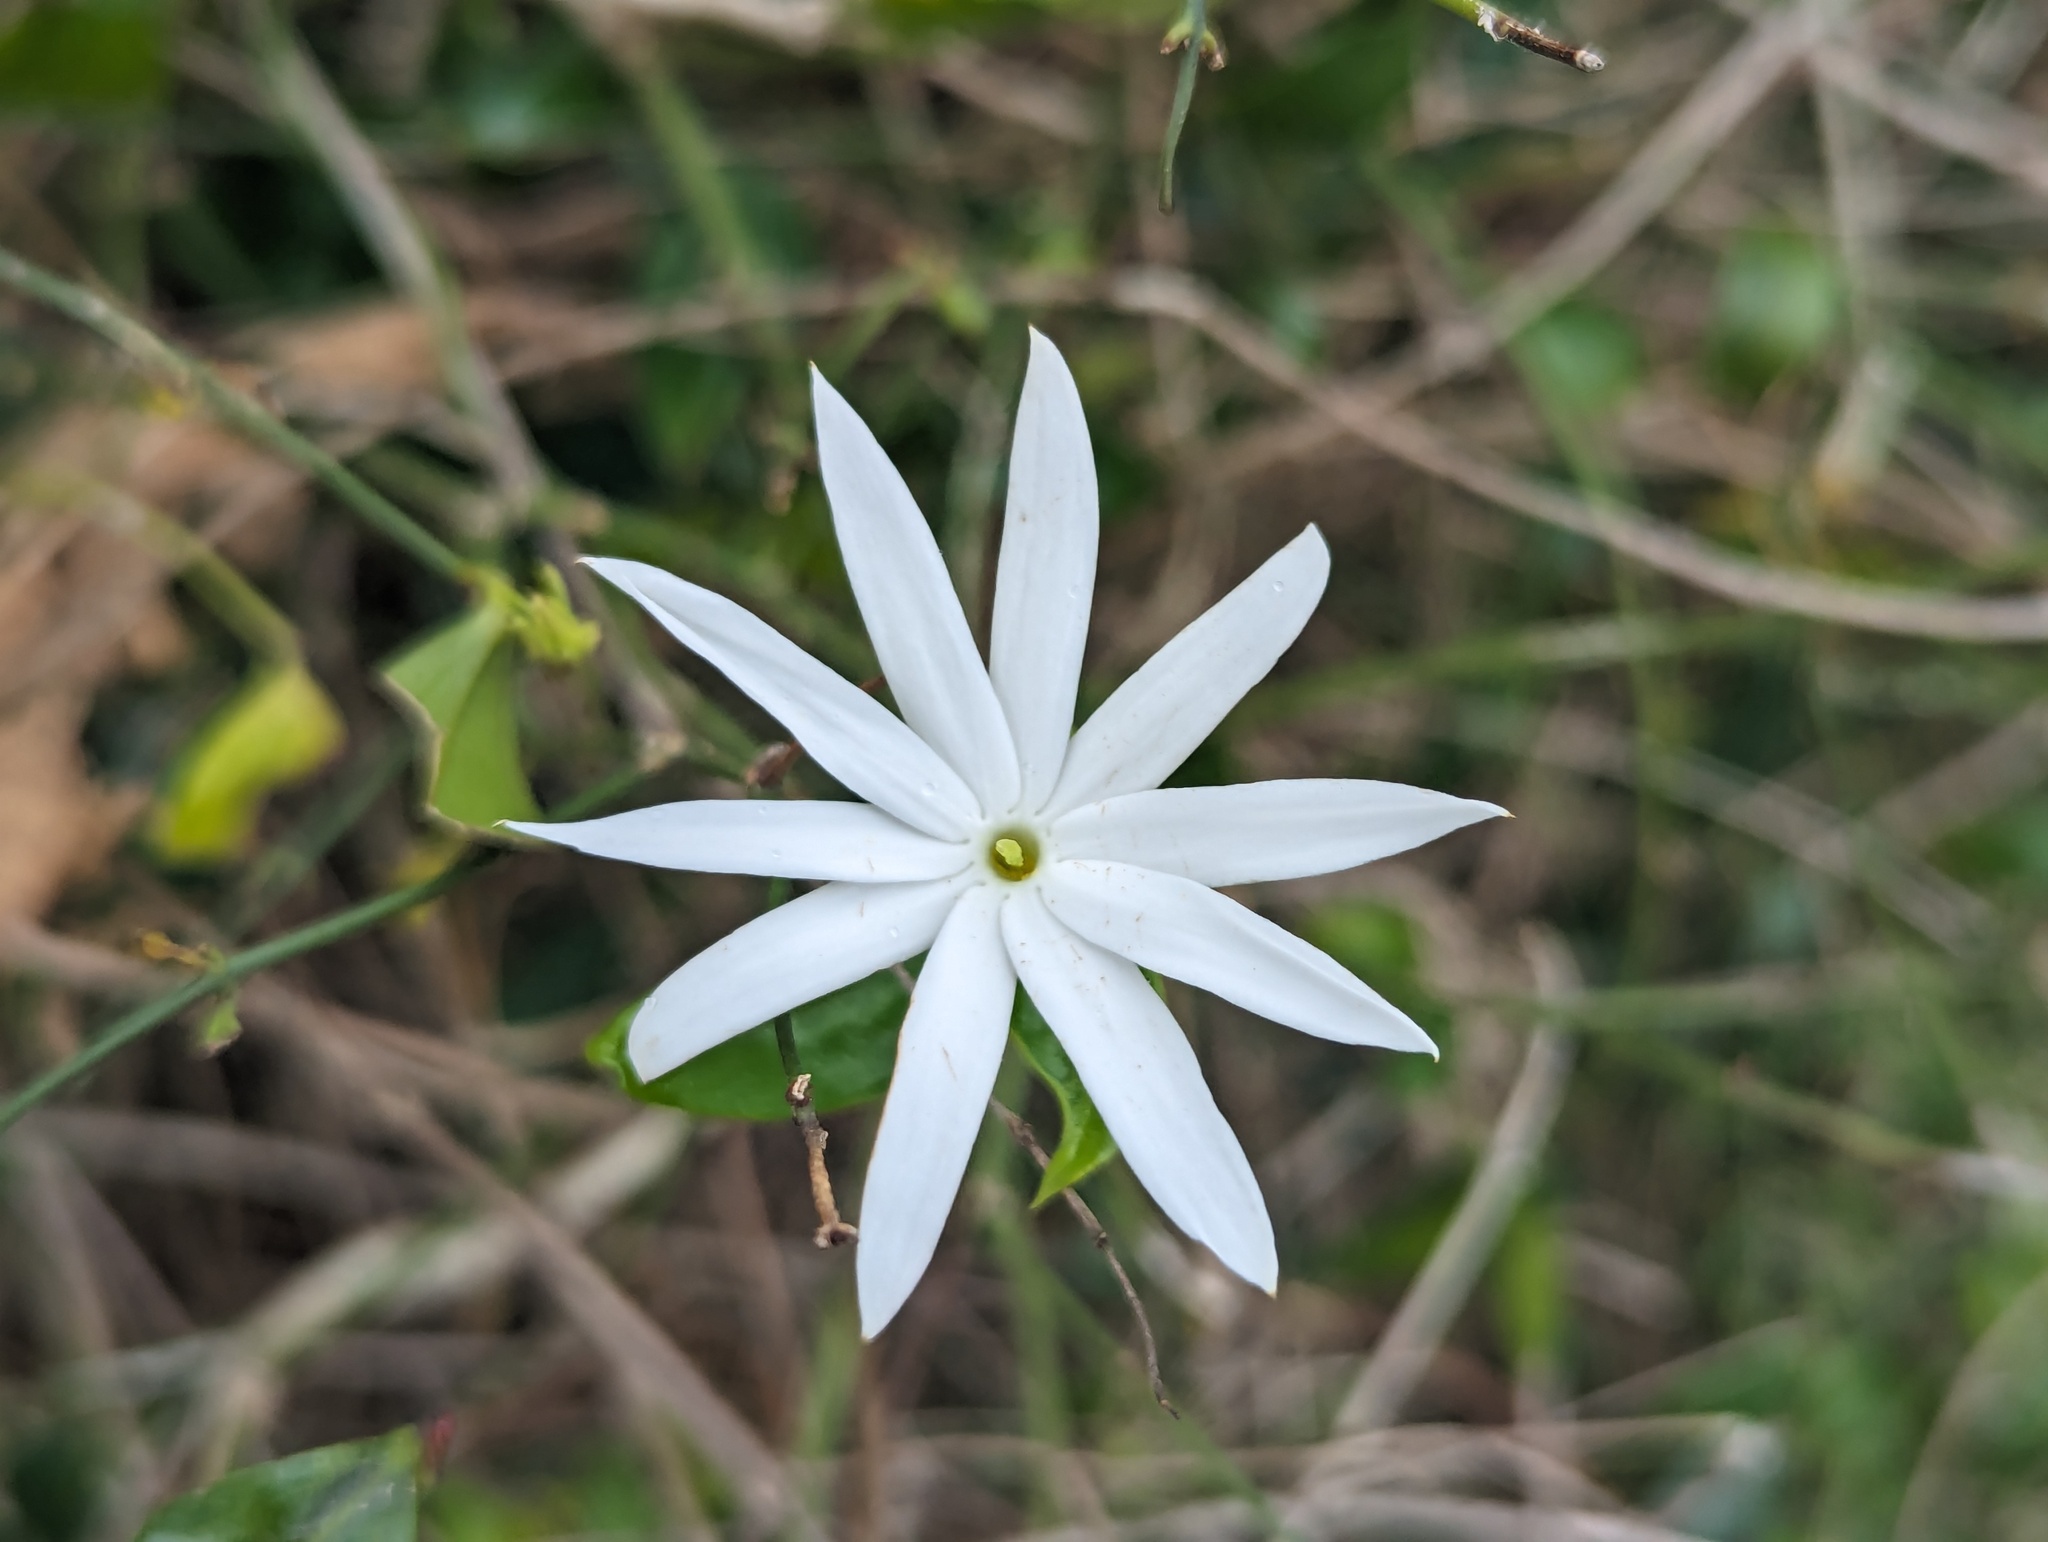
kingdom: Plantae
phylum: Tracheophyta
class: Magnoliopsida
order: Lamiales
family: Oleaceae
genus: Jasminum
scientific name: Jasminum nervosum
